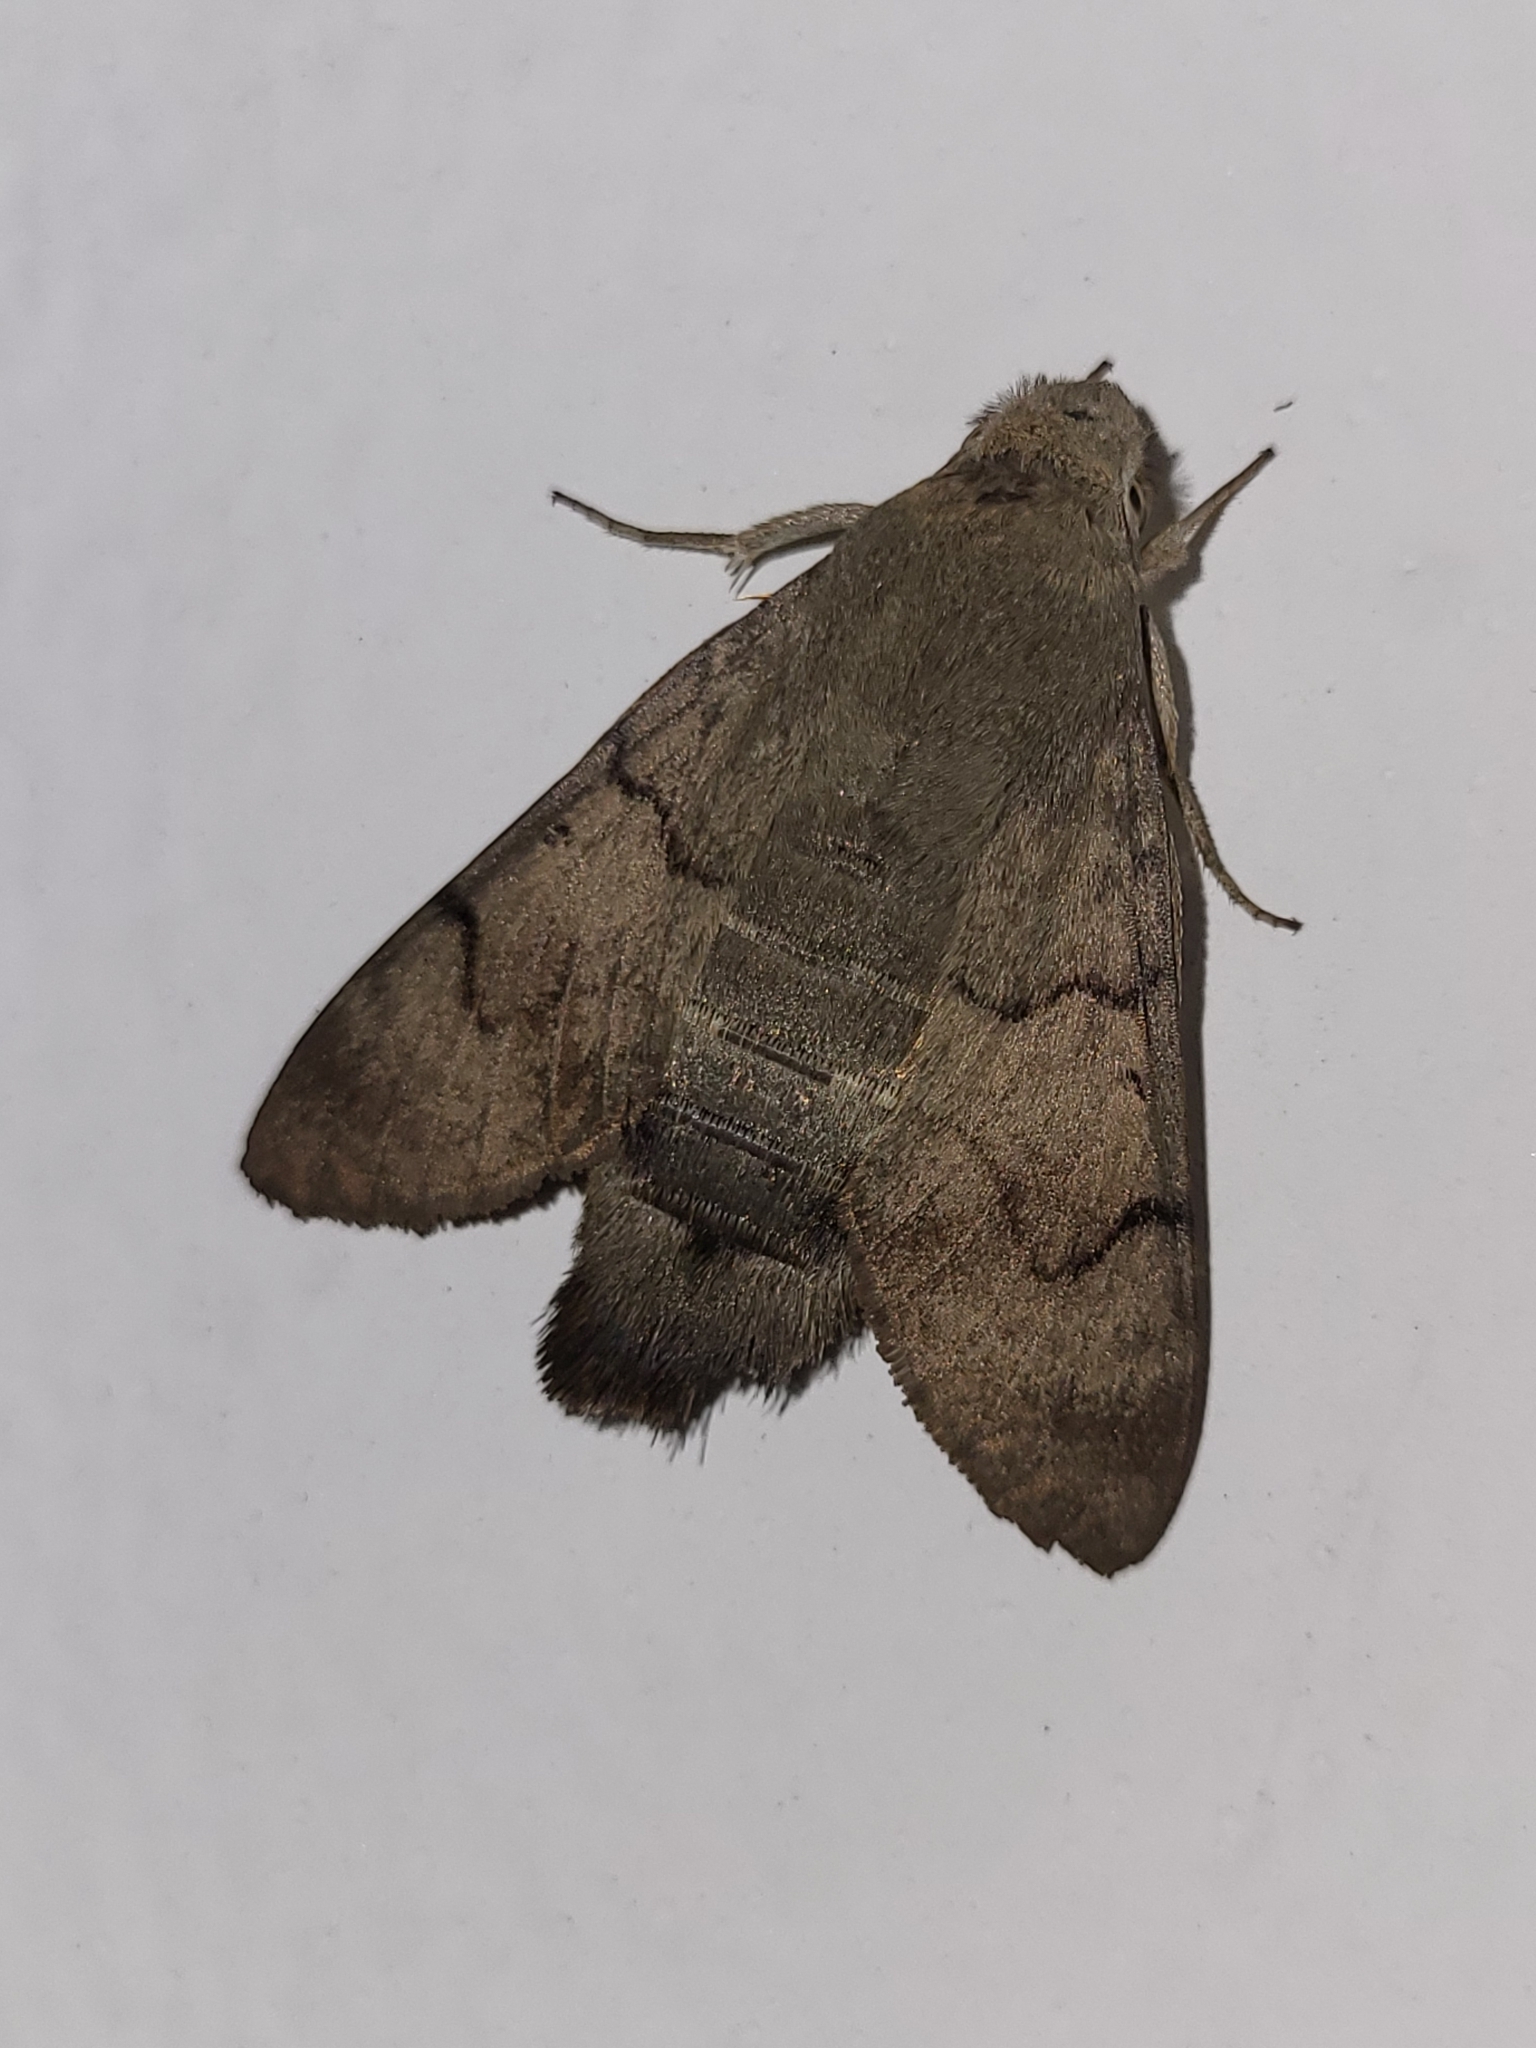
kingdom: Animalia
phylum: Arthropoda
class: Insecta
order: Lepidoptera
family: Sphingidae
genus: Macroglossum
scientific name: Macroglossum stellatarum
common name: Humming-bird hawk-moth
